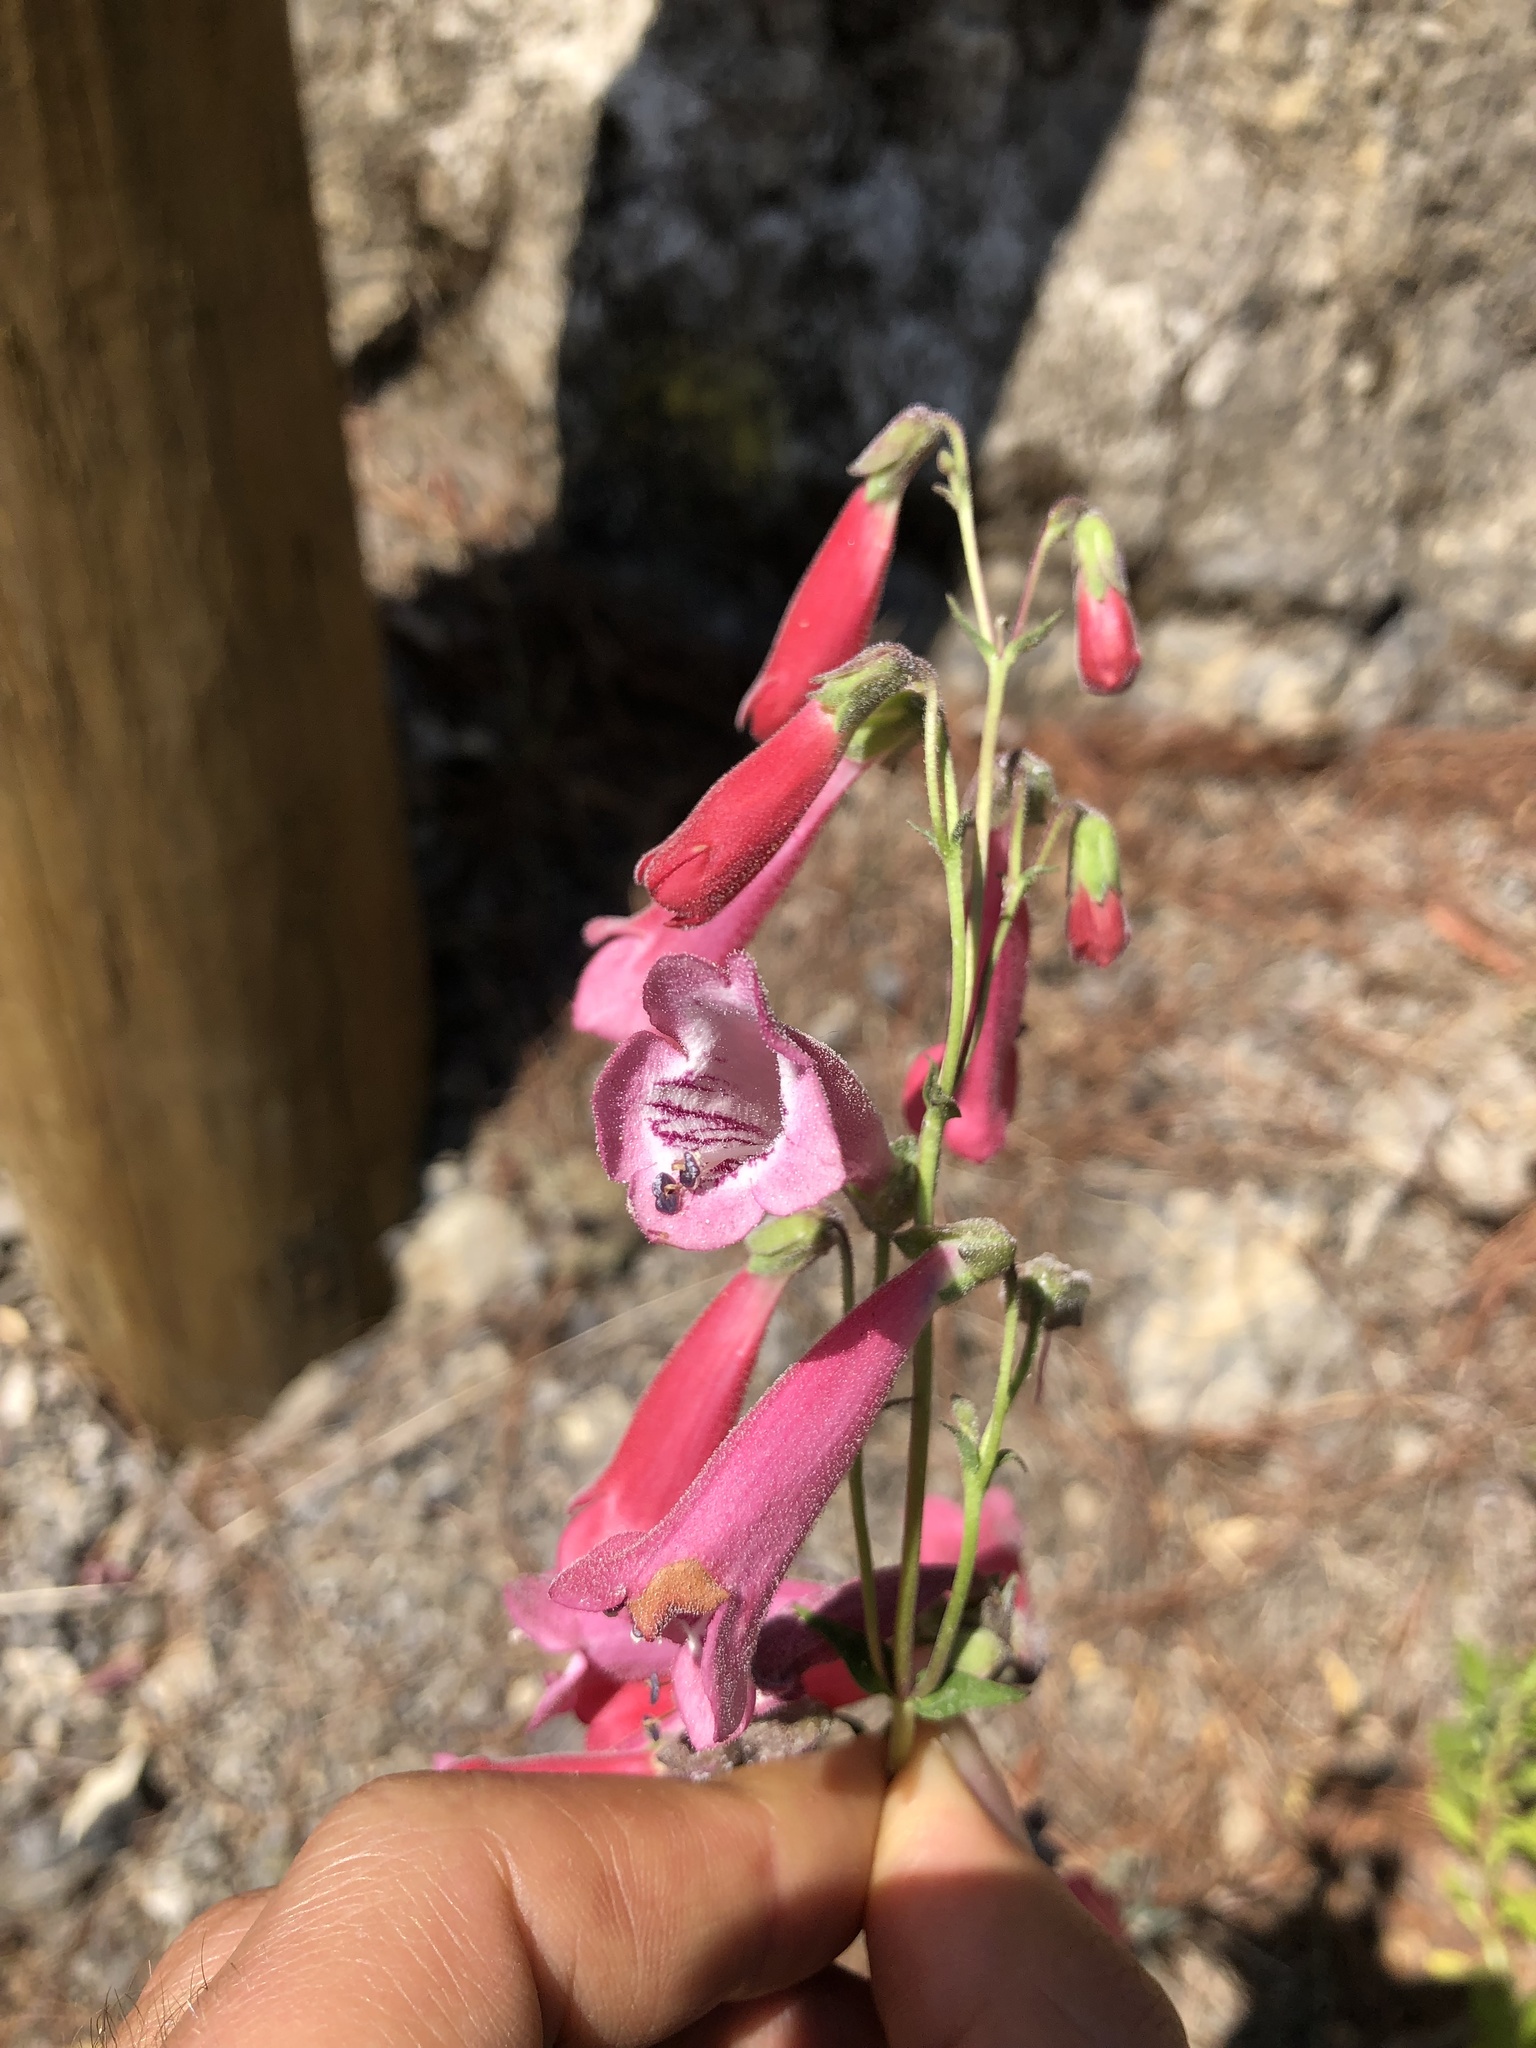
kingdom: Plantae
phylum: Tracheophyta
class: Magnoliopsida
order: Lamiales
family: Plantaginaceae
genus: Penstemon
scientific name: Penstemon hartwegii
